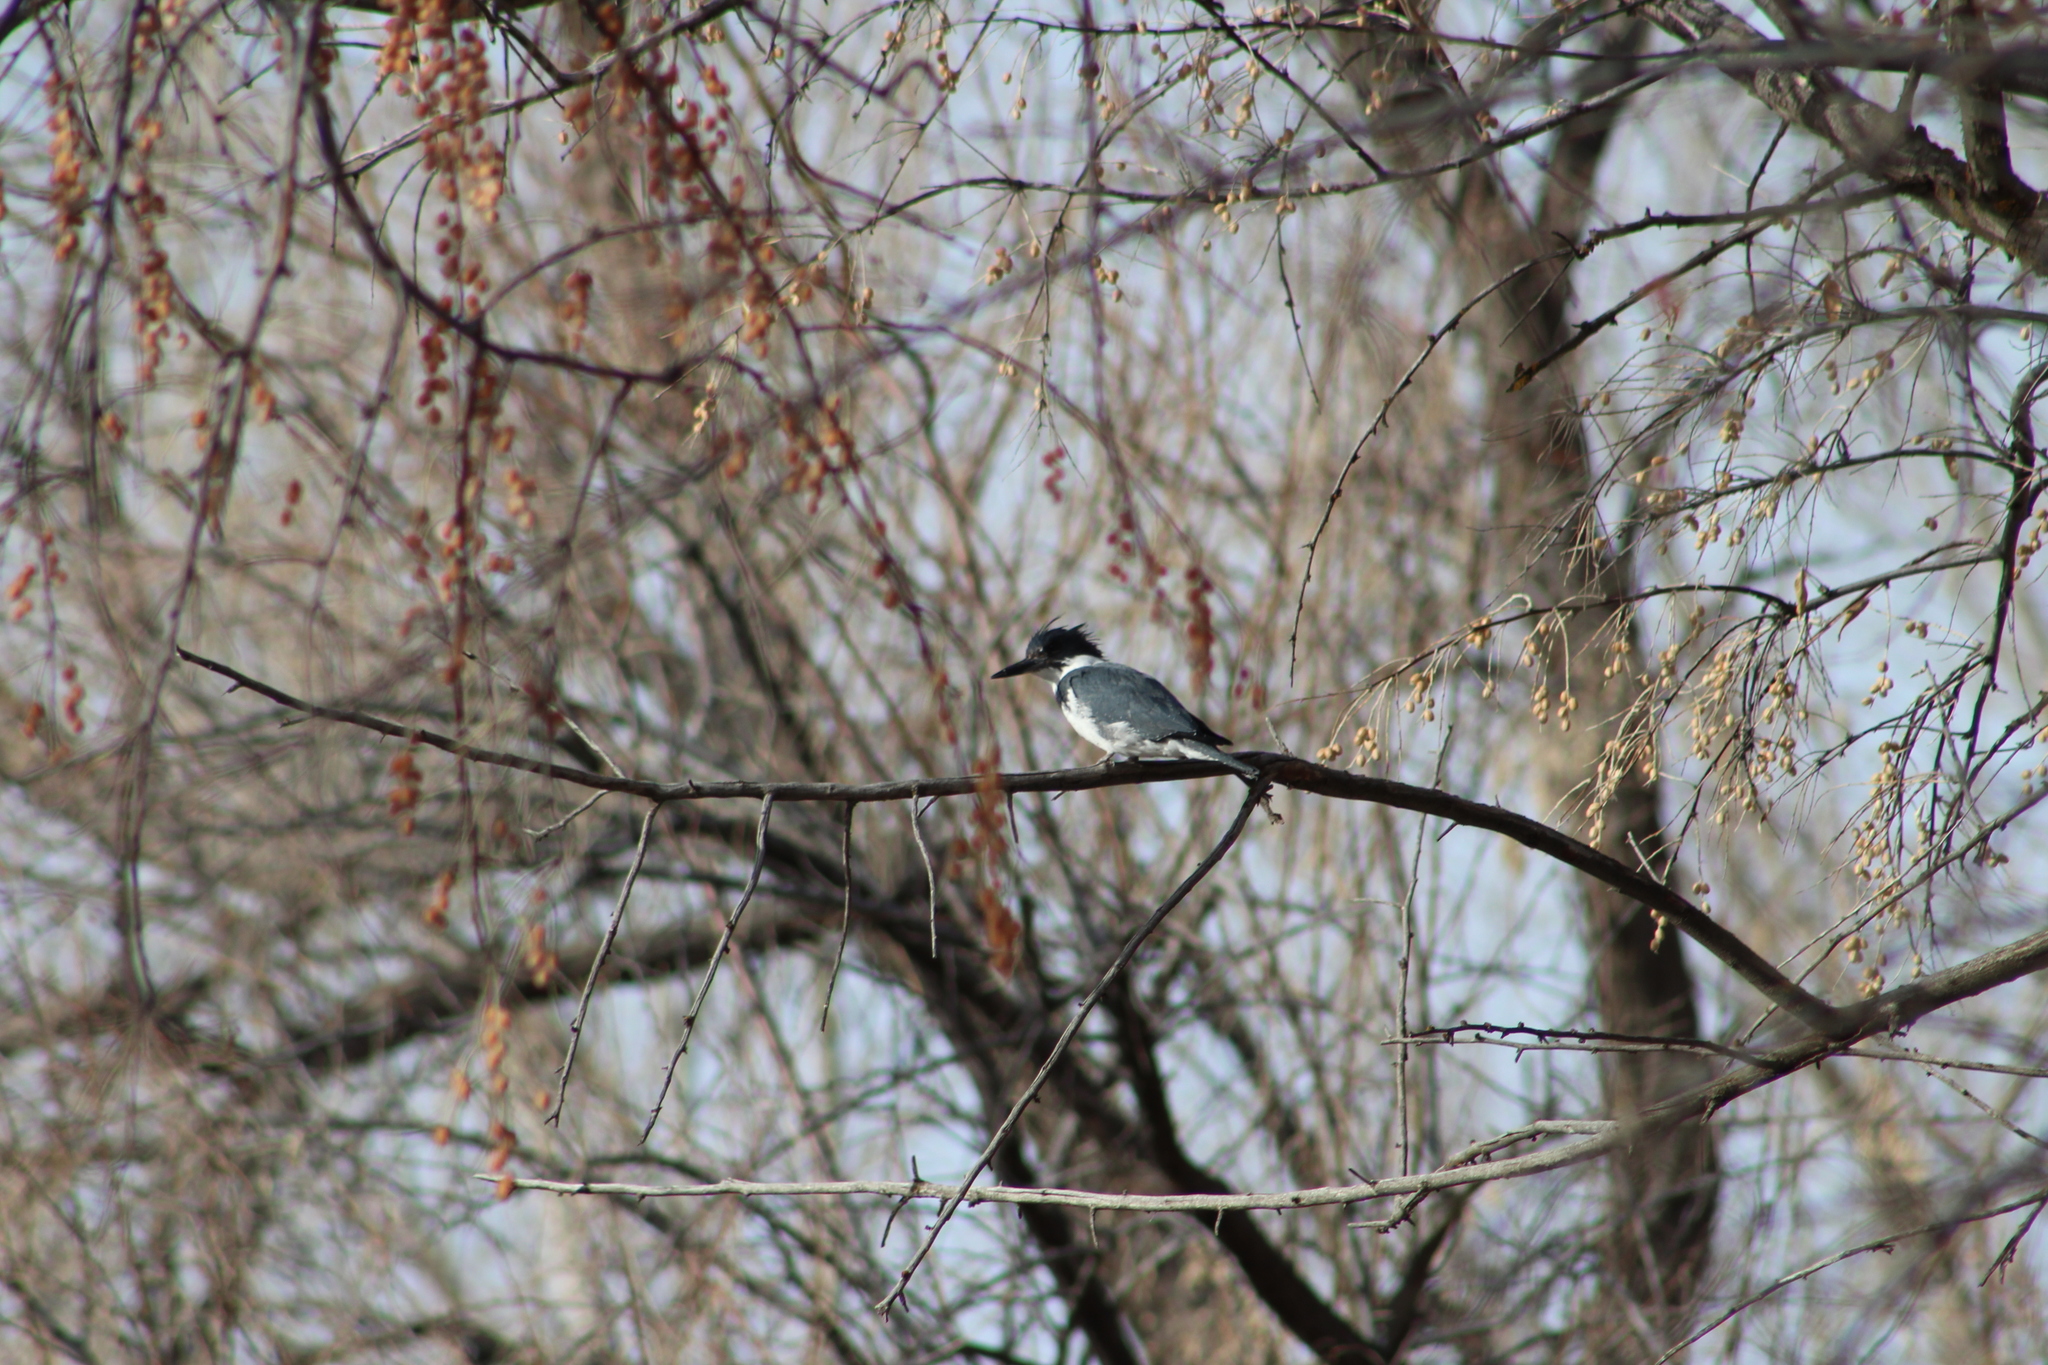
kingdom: Animalia
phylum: Chordata
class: Aves
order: Coraciiformes
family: Alcedinidae
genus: Megaceryle
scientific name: Megaceryle alcyon
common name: Belted kingfisher
